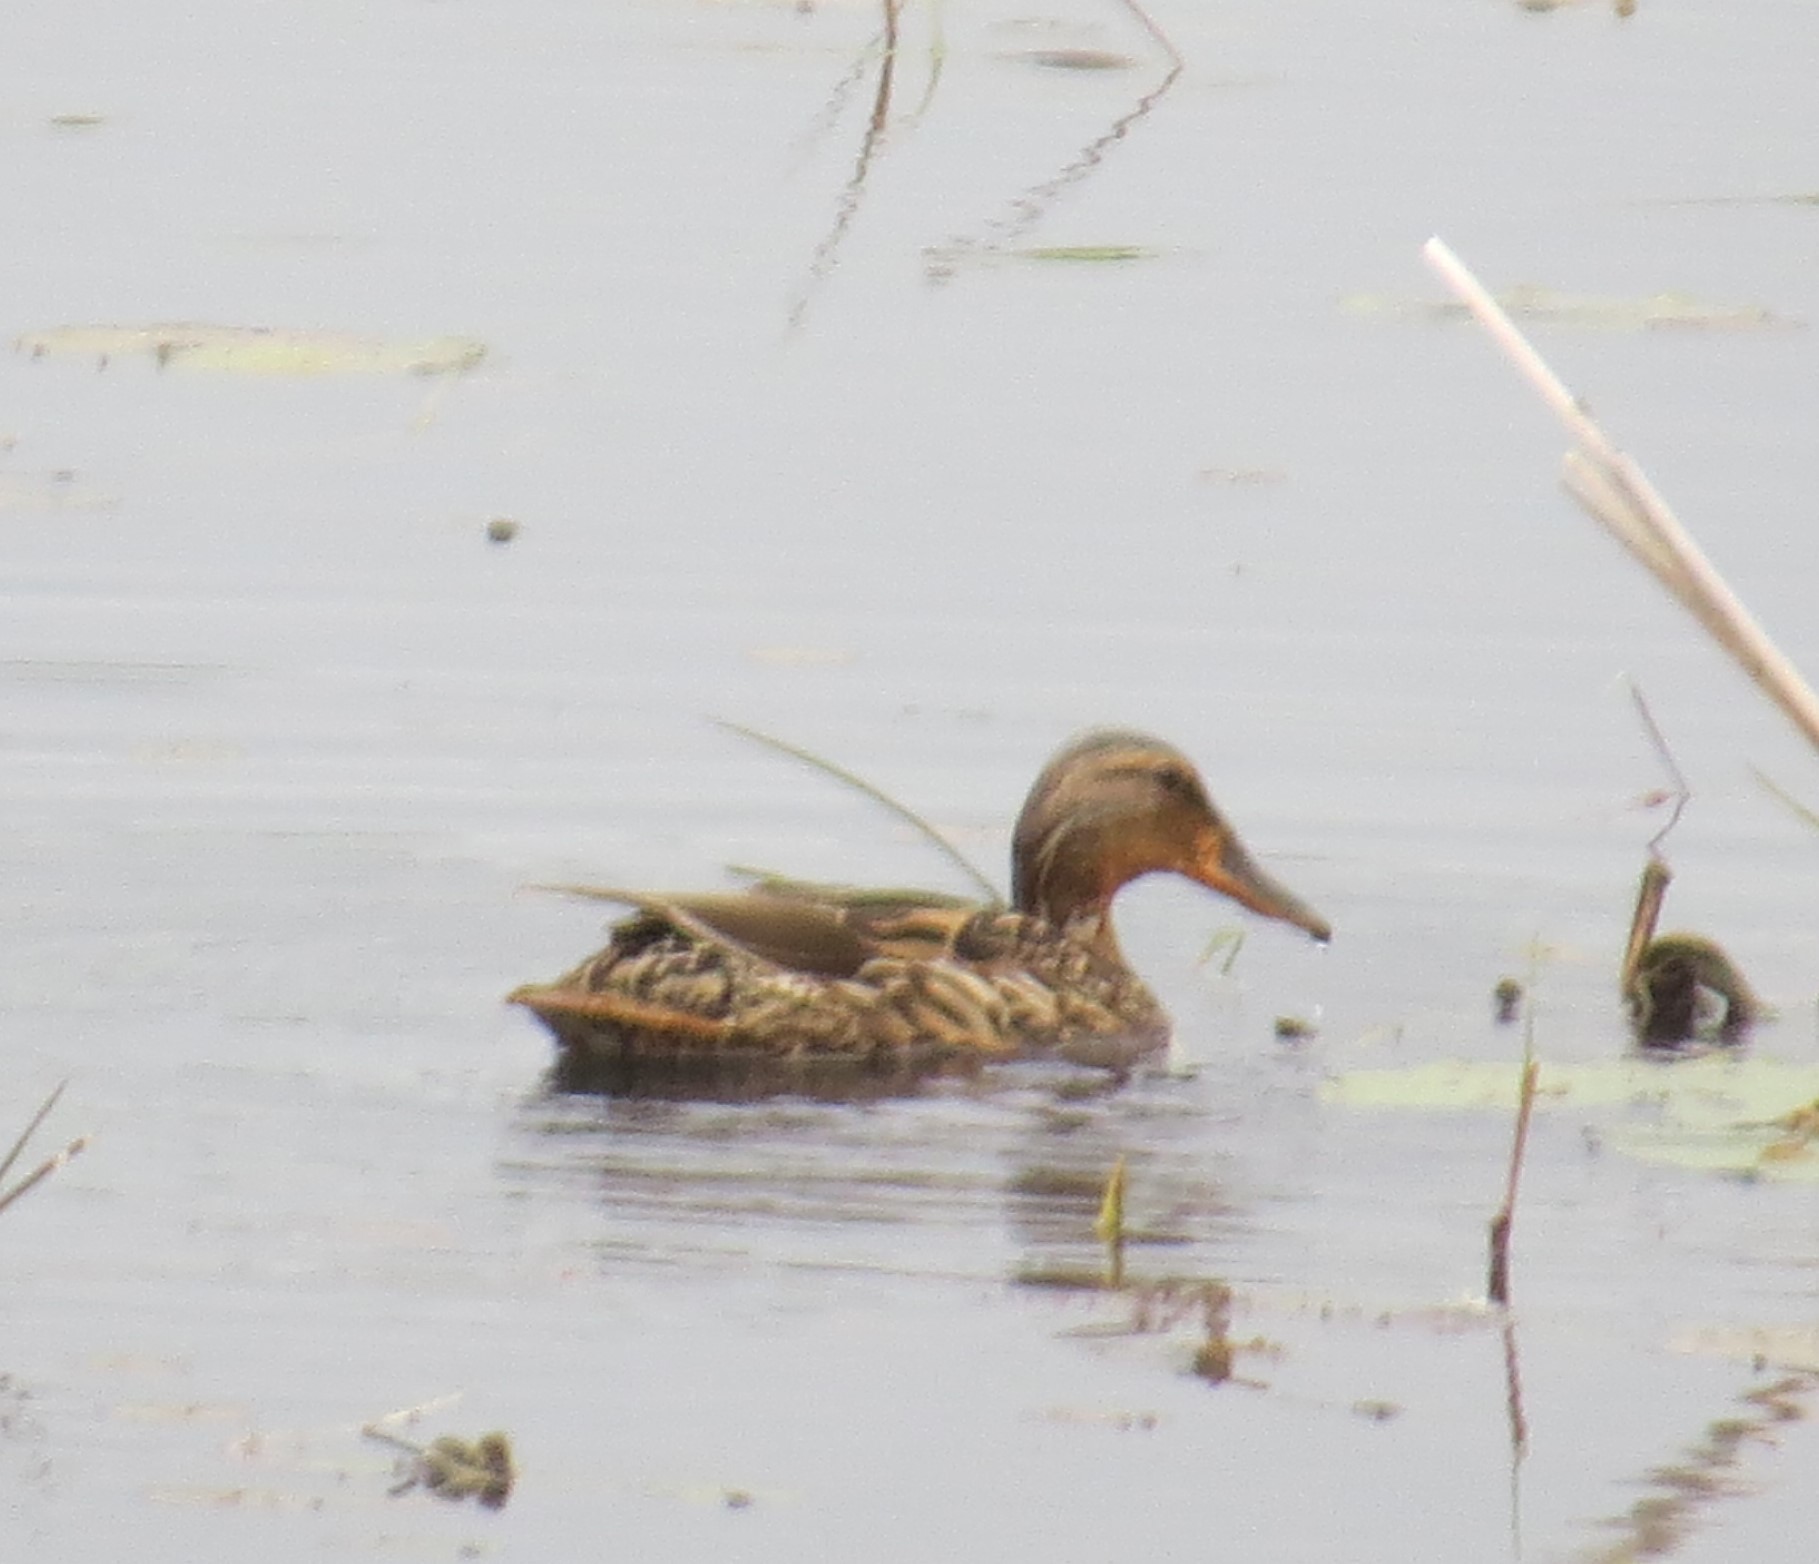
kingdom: Animalia
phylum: Chordata
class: Aves
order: Anseriformes
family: Anatidae
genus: Spatula
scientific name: Spatula clypeata
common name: Northern shoveler
